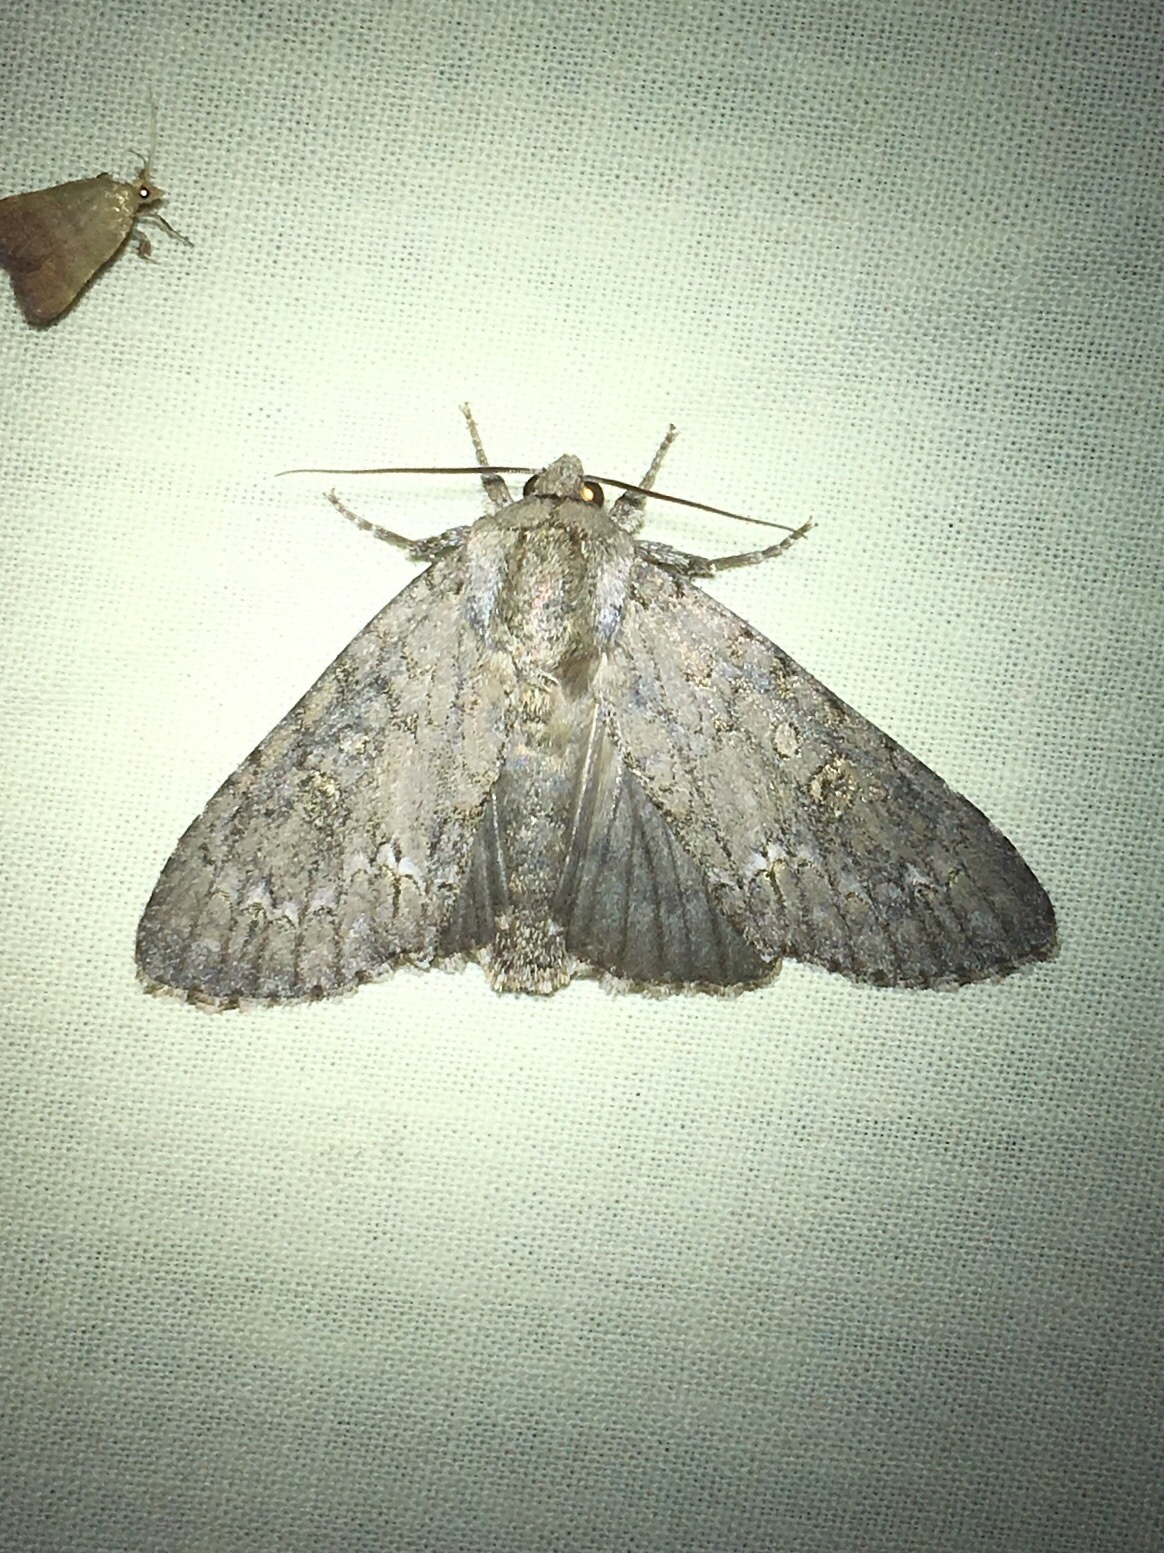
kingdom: Animalia
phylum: Arthropoda
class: Insecta
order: Lepidoptera
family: Noctuidae
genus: Acronicta
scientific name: Acronicta americana
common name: American dagger
